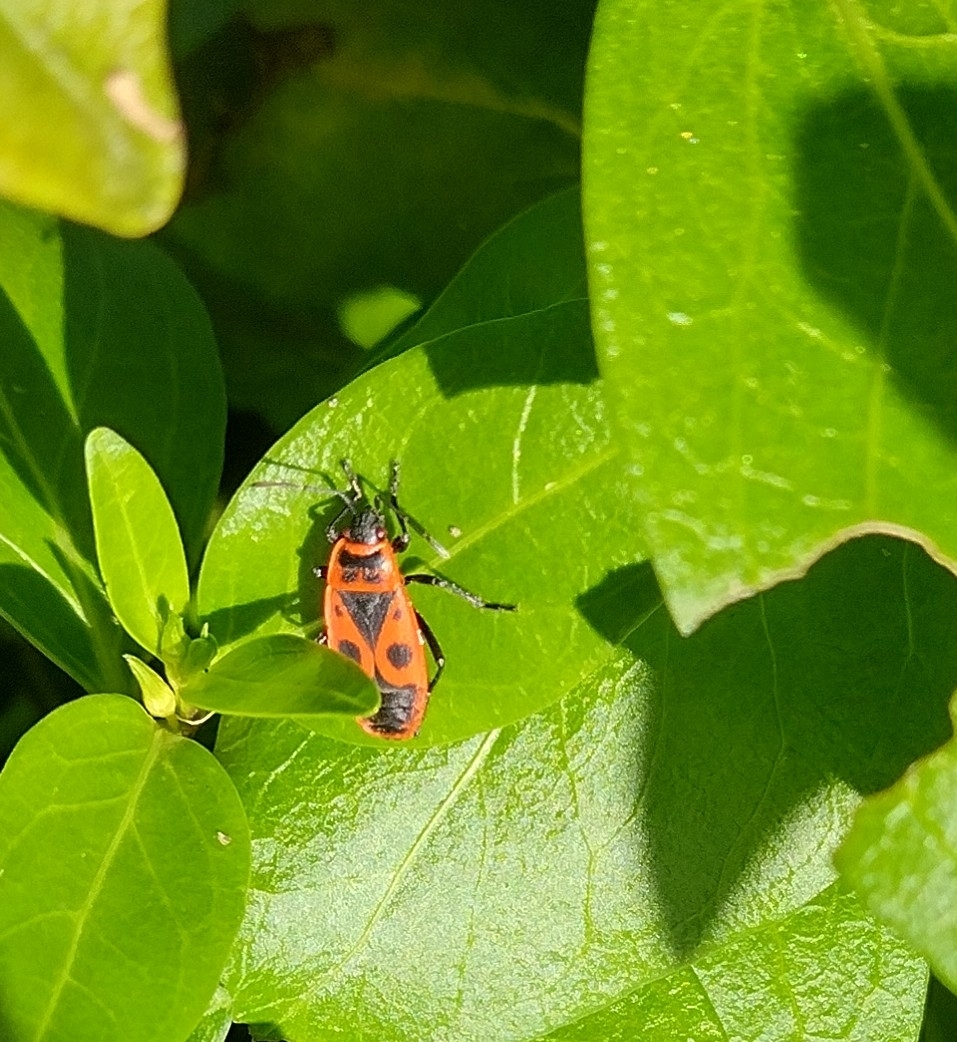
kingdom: Animalia
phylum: Arthropoda
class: Insecta
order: Hemiptera
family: Pyrrhocoridae
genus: Pyrrhocoris
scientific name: Pyrrhocoris apterus
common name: Firebug
